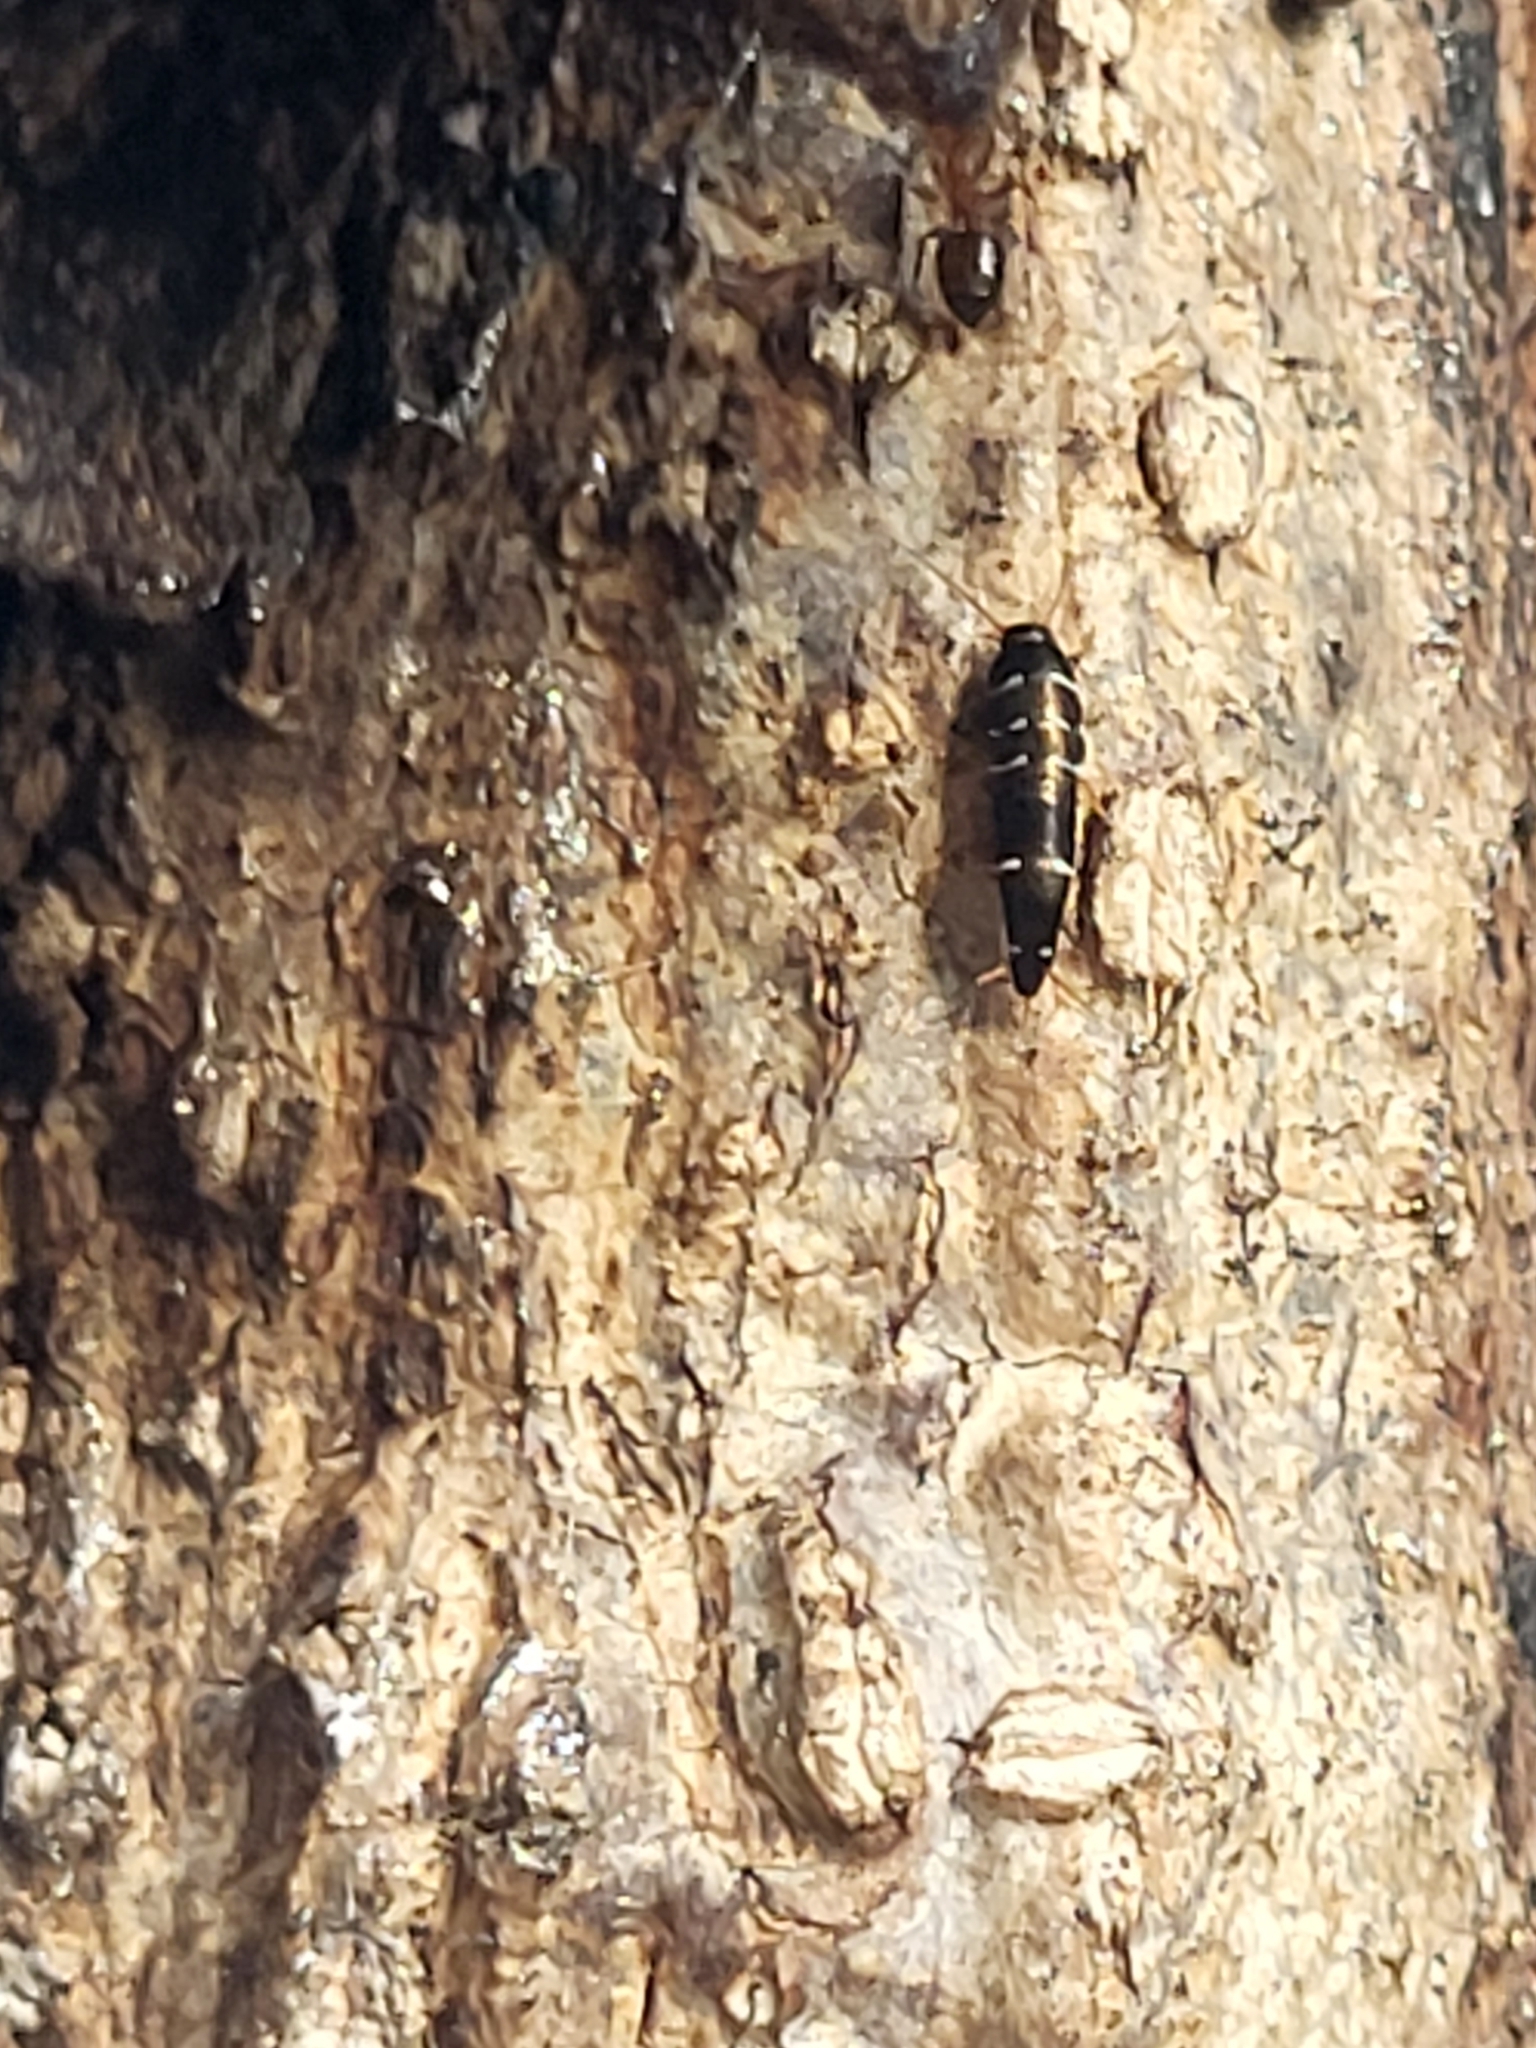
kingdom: Animalia
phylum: Arthropoda
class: Insecta
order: Zygentoma
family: Lepismatidae
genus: Lepisma
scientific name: Lepisma chlorosoma
